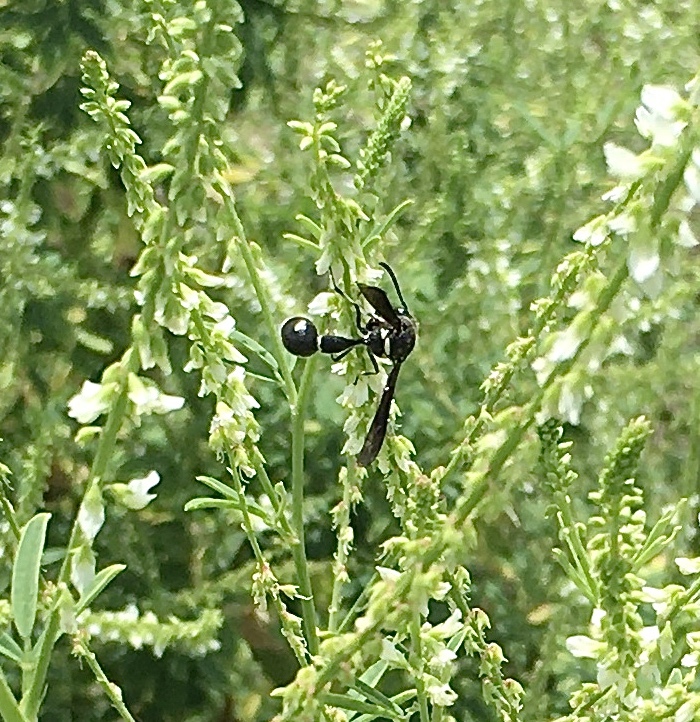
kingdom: Animalia
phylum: Arthropoda
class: Insecta
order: Hymenoptera
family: Vespidae
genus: Eumenes
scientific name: Eumenes fraternus
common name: Fraternal potter wasp
